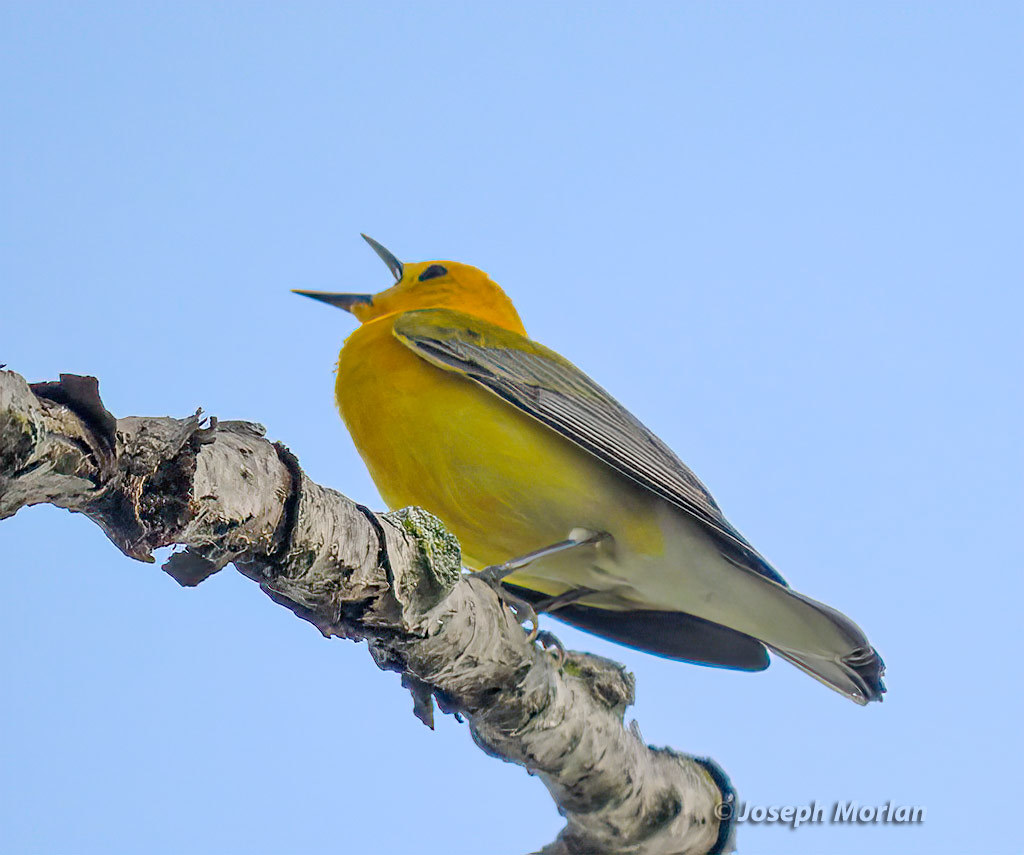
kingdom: Animalia
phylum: Chordata
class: Aves
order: Passeriformes
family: Parulidae
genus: Protonotaria
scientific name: Protonotaria citrea
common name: Prothonotary warbler
